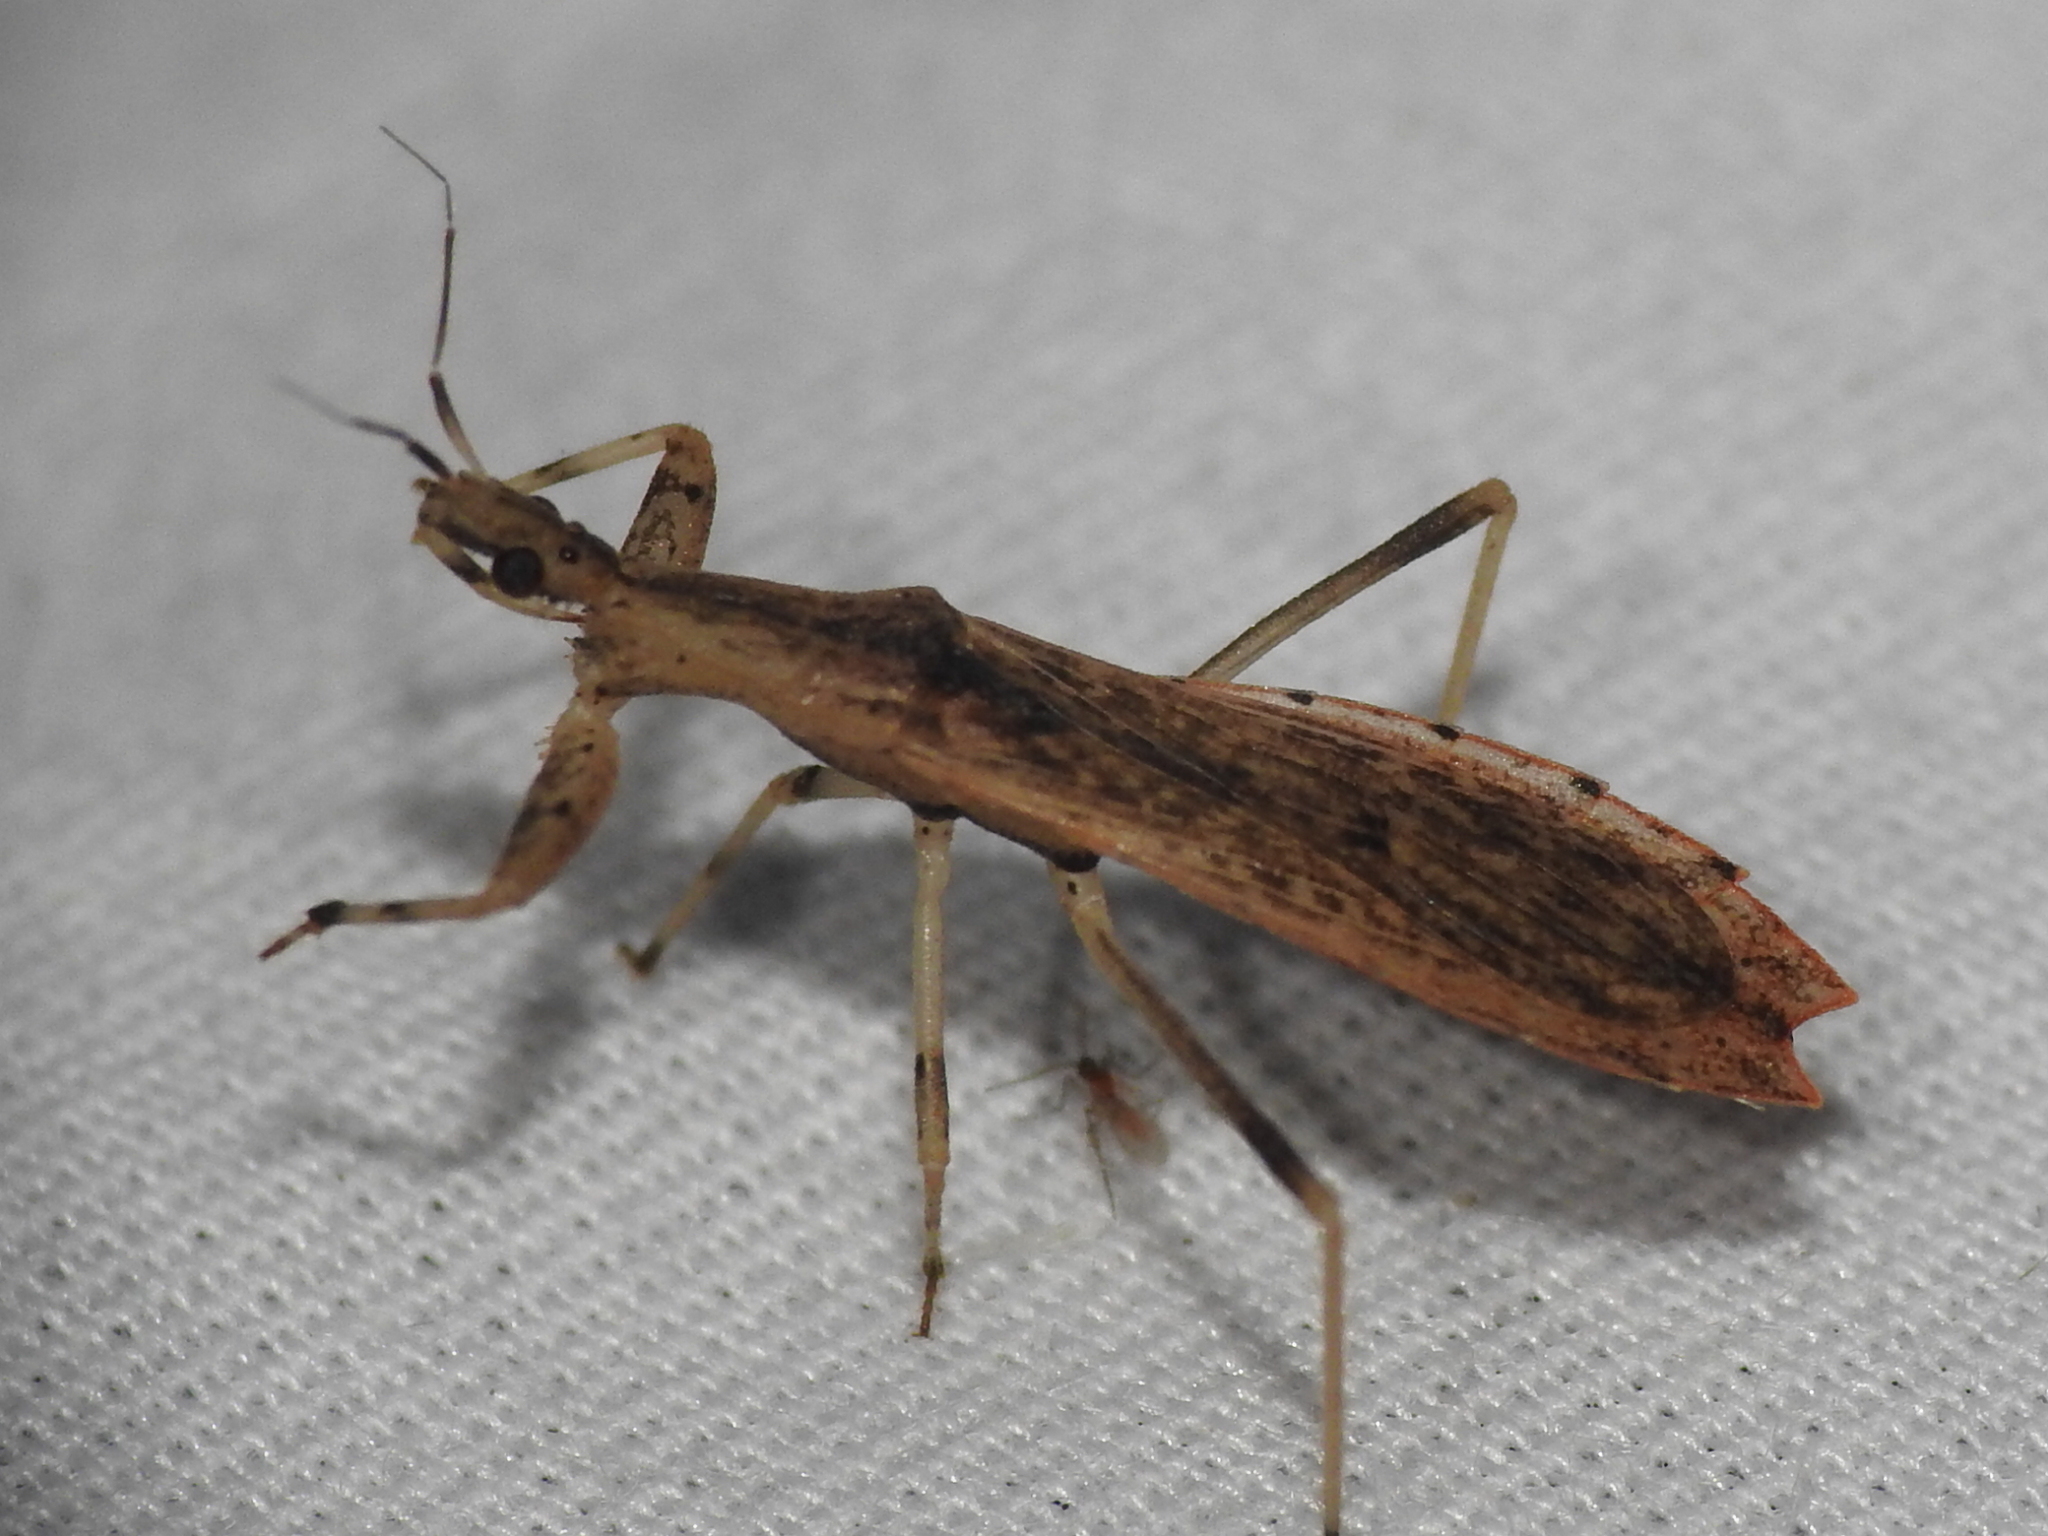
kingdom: Animalia
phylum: Arthropoda
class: Insecta
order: Hemiptera
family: Reduviidae
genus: Ctenotrachelus
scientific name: Ctenotrachelus shermani
